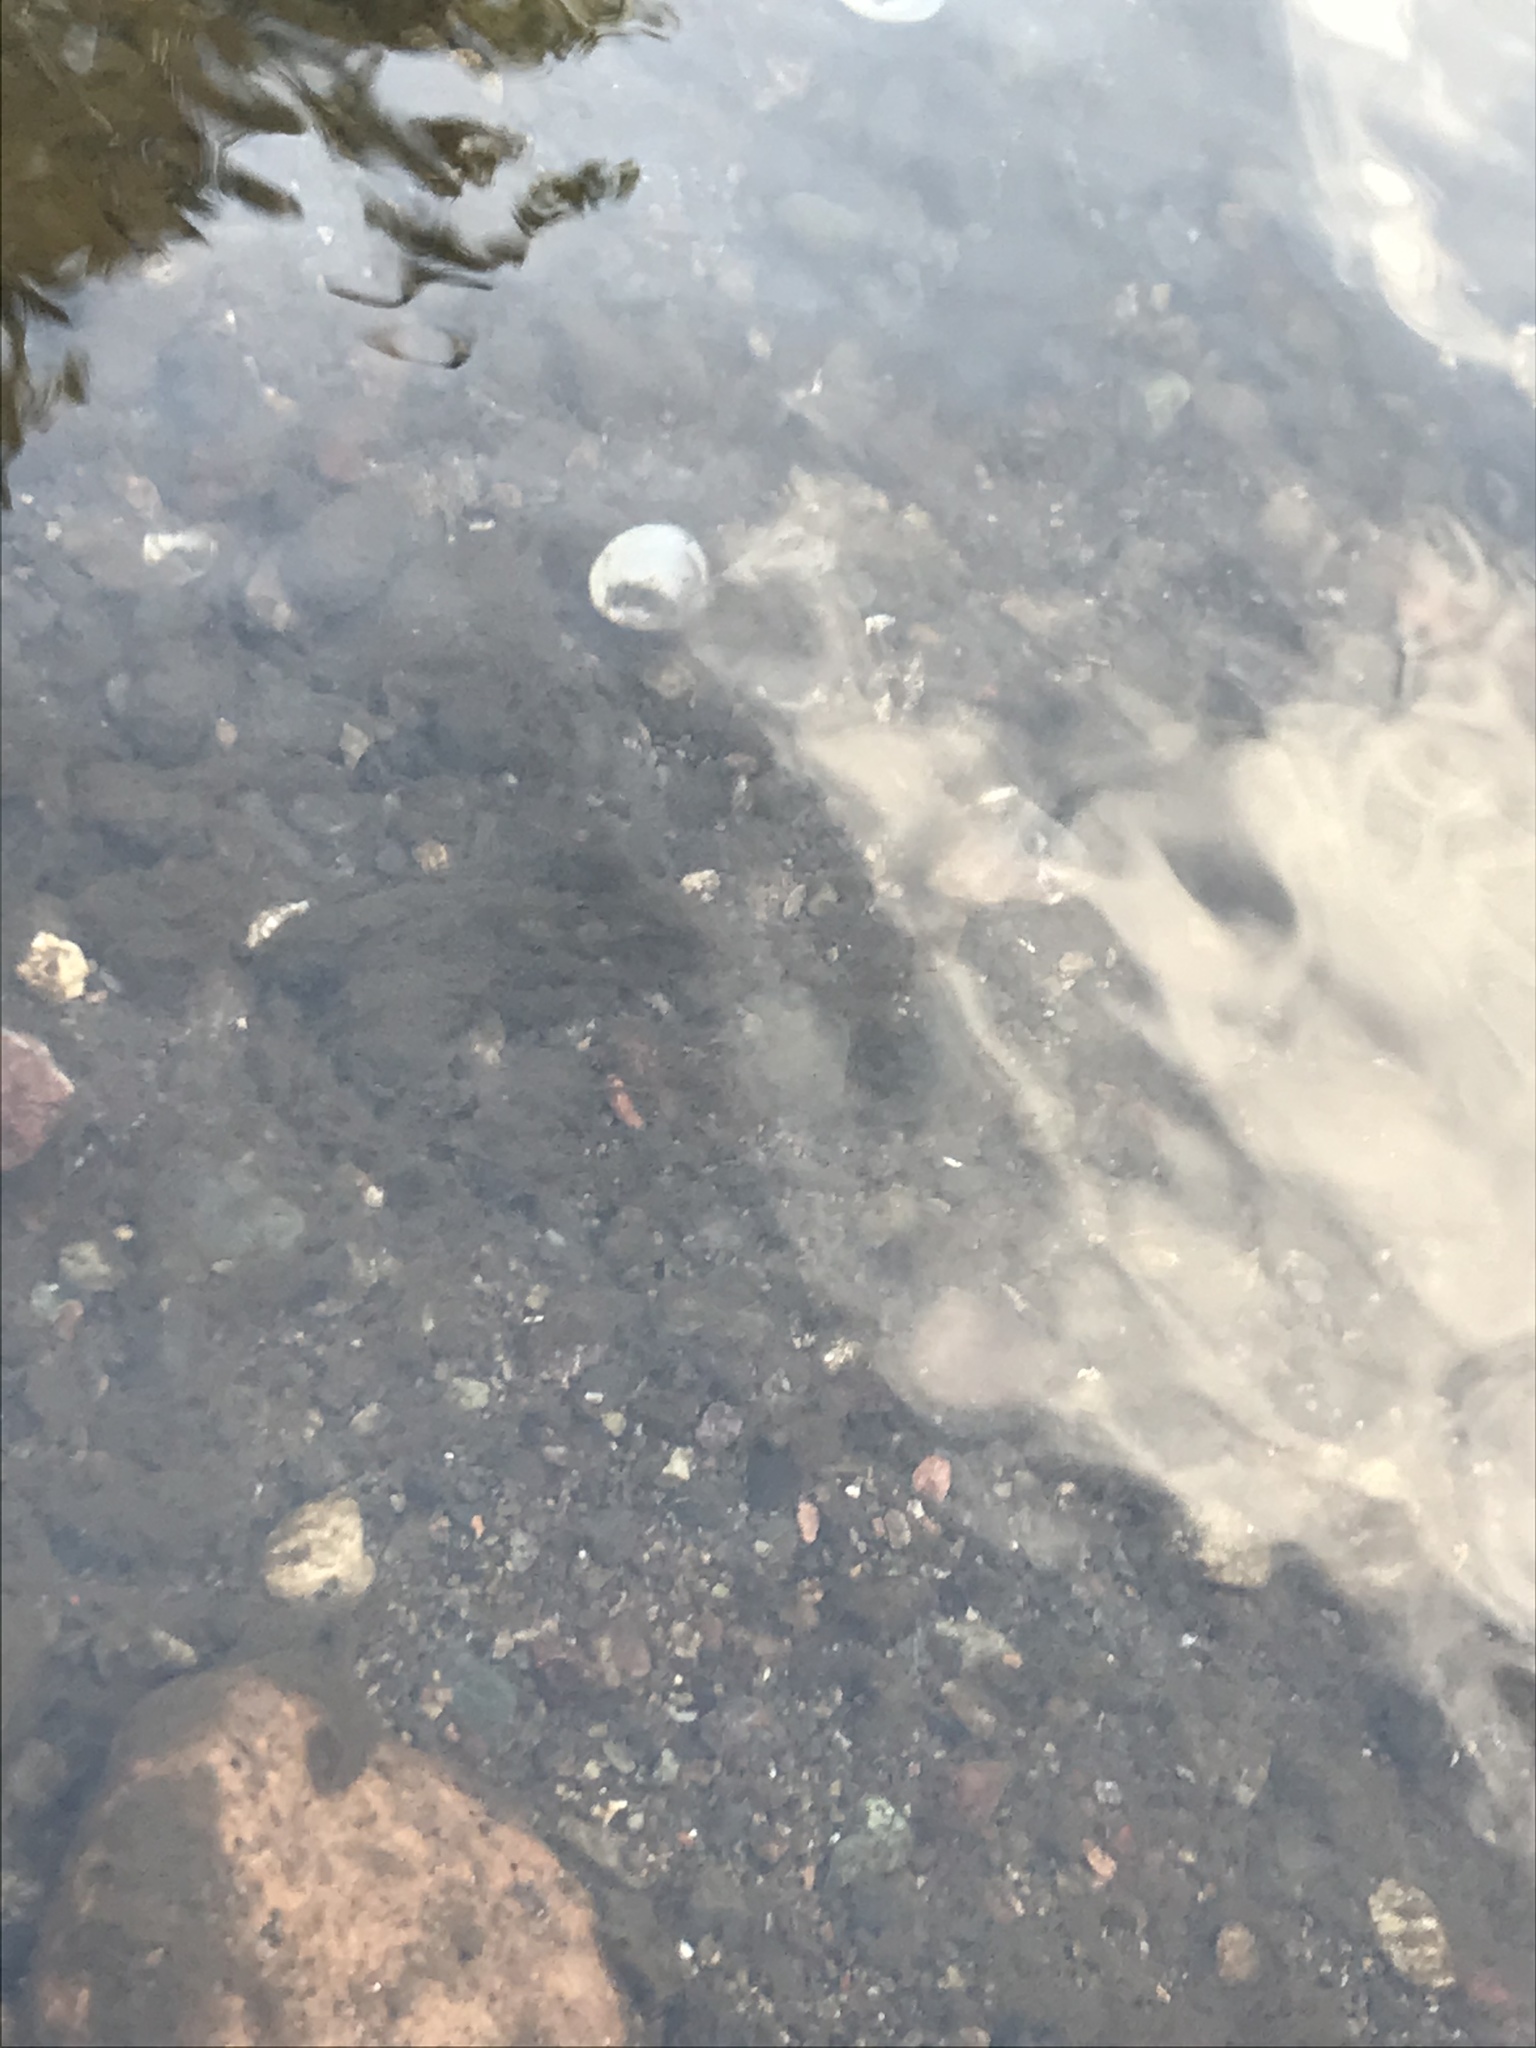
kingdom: Animalia
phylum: Mollusca
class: Bivalvia
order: Venerida
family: Cyrenidae
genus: Corbicula
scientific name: Corbicula fluminea
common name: Asian clam
